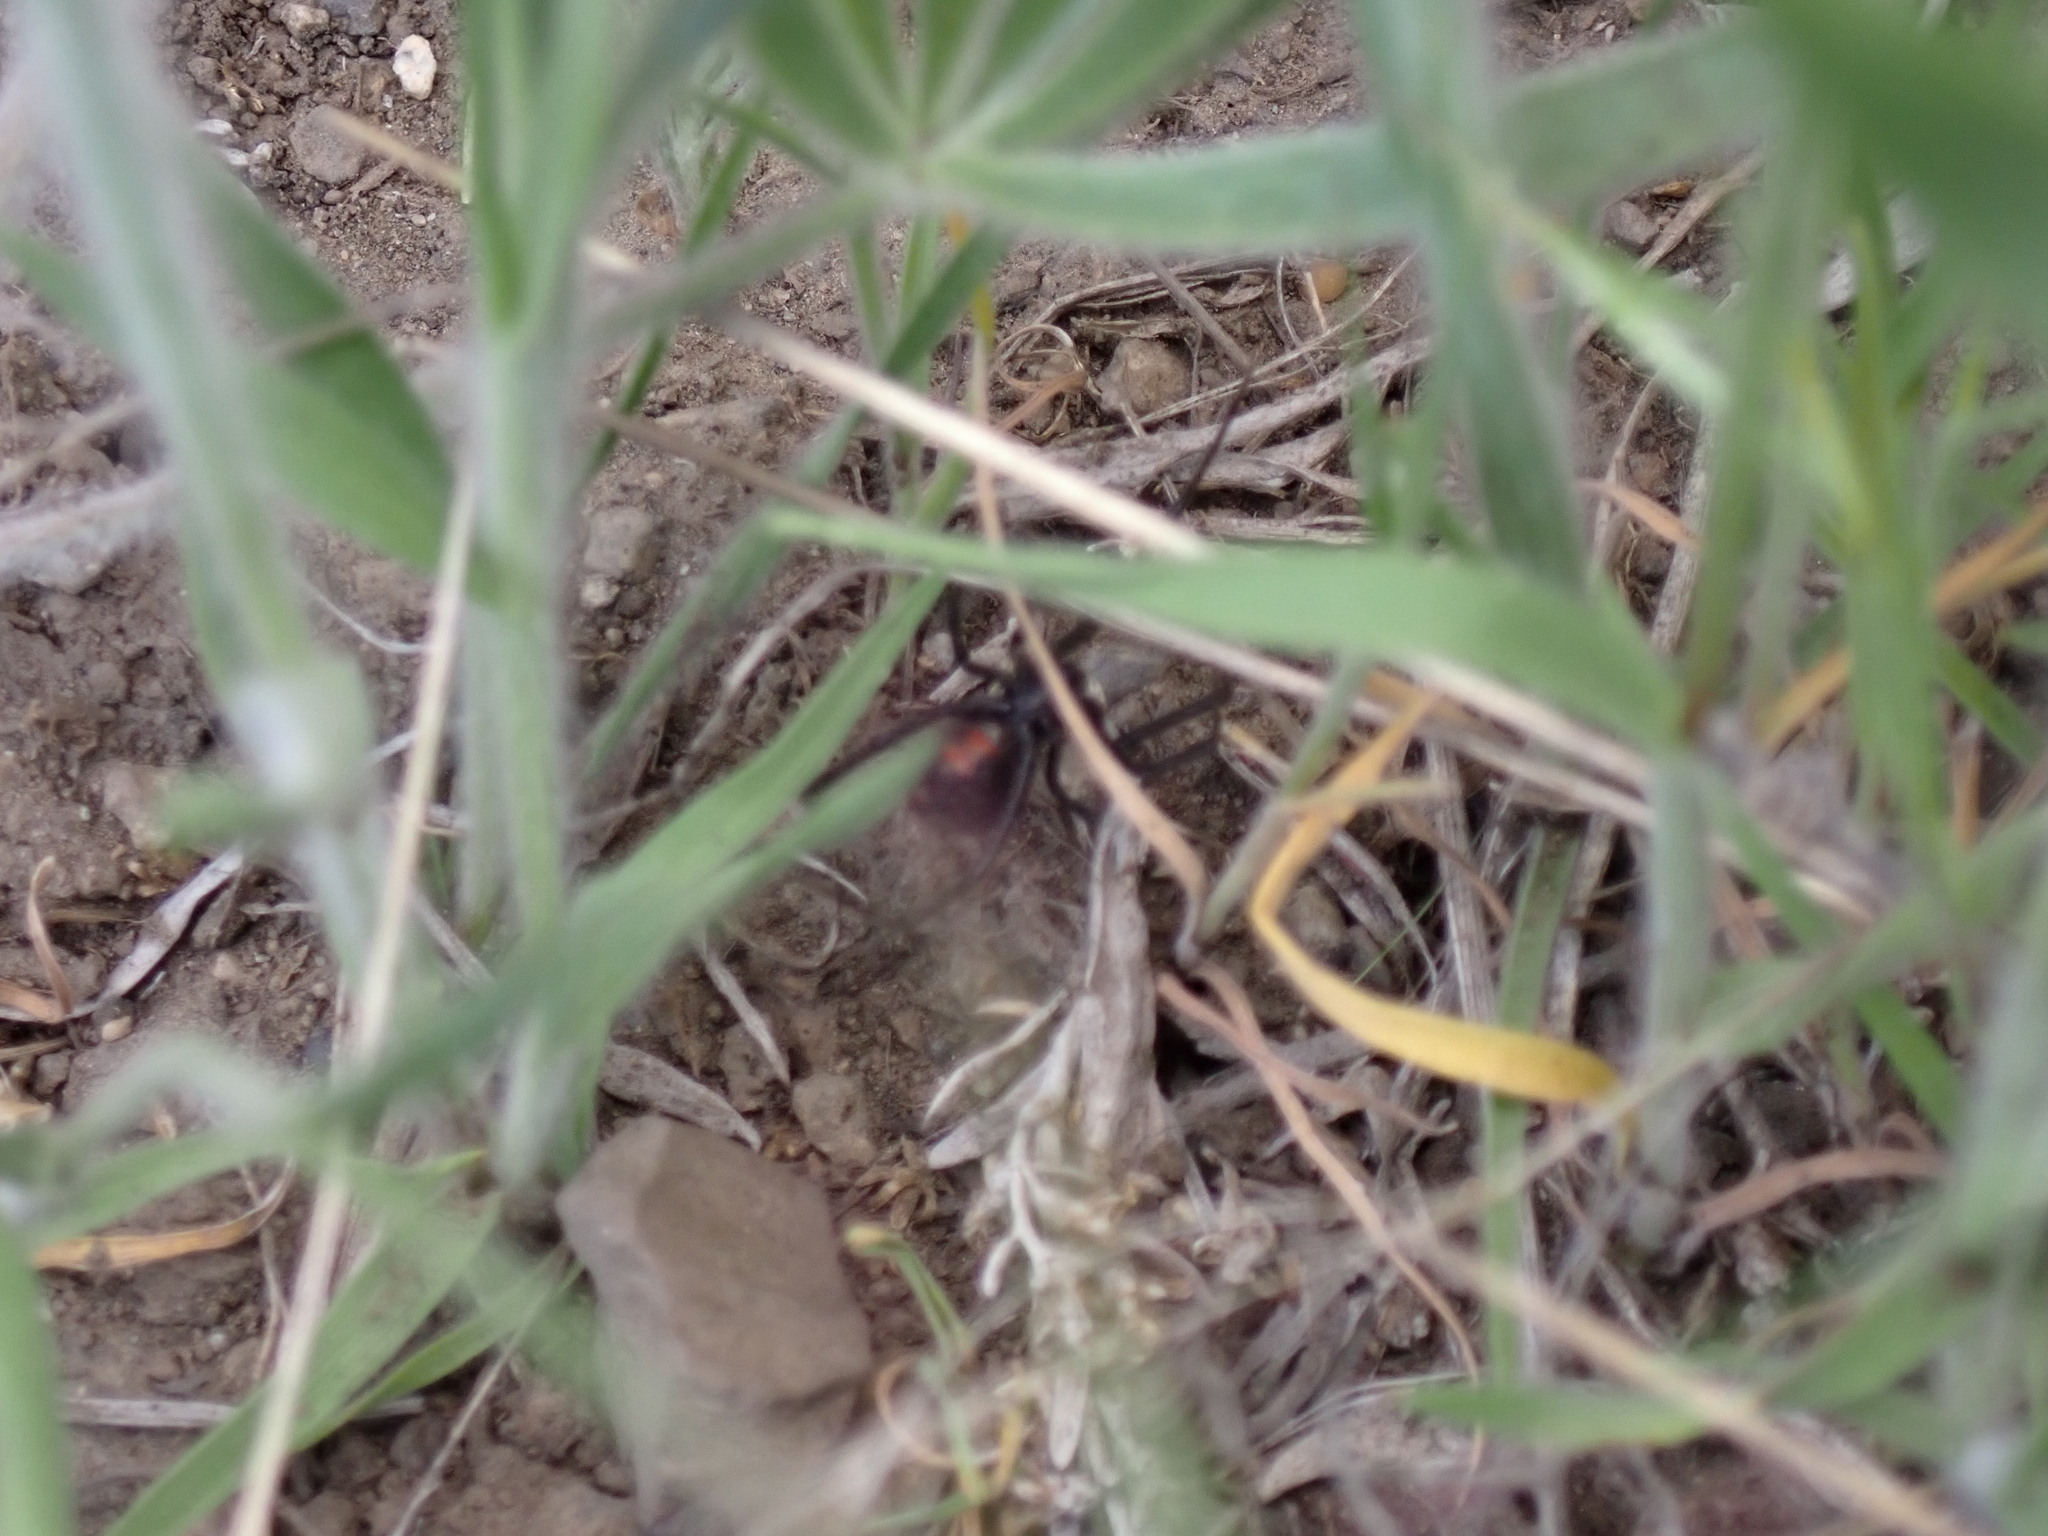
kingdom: Animalia
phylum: Arthropoda
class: Arachnida
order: Araneae
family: Theridiidae
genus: Latrodectus
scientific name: Latrodectus hesperus
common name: Western black widow
